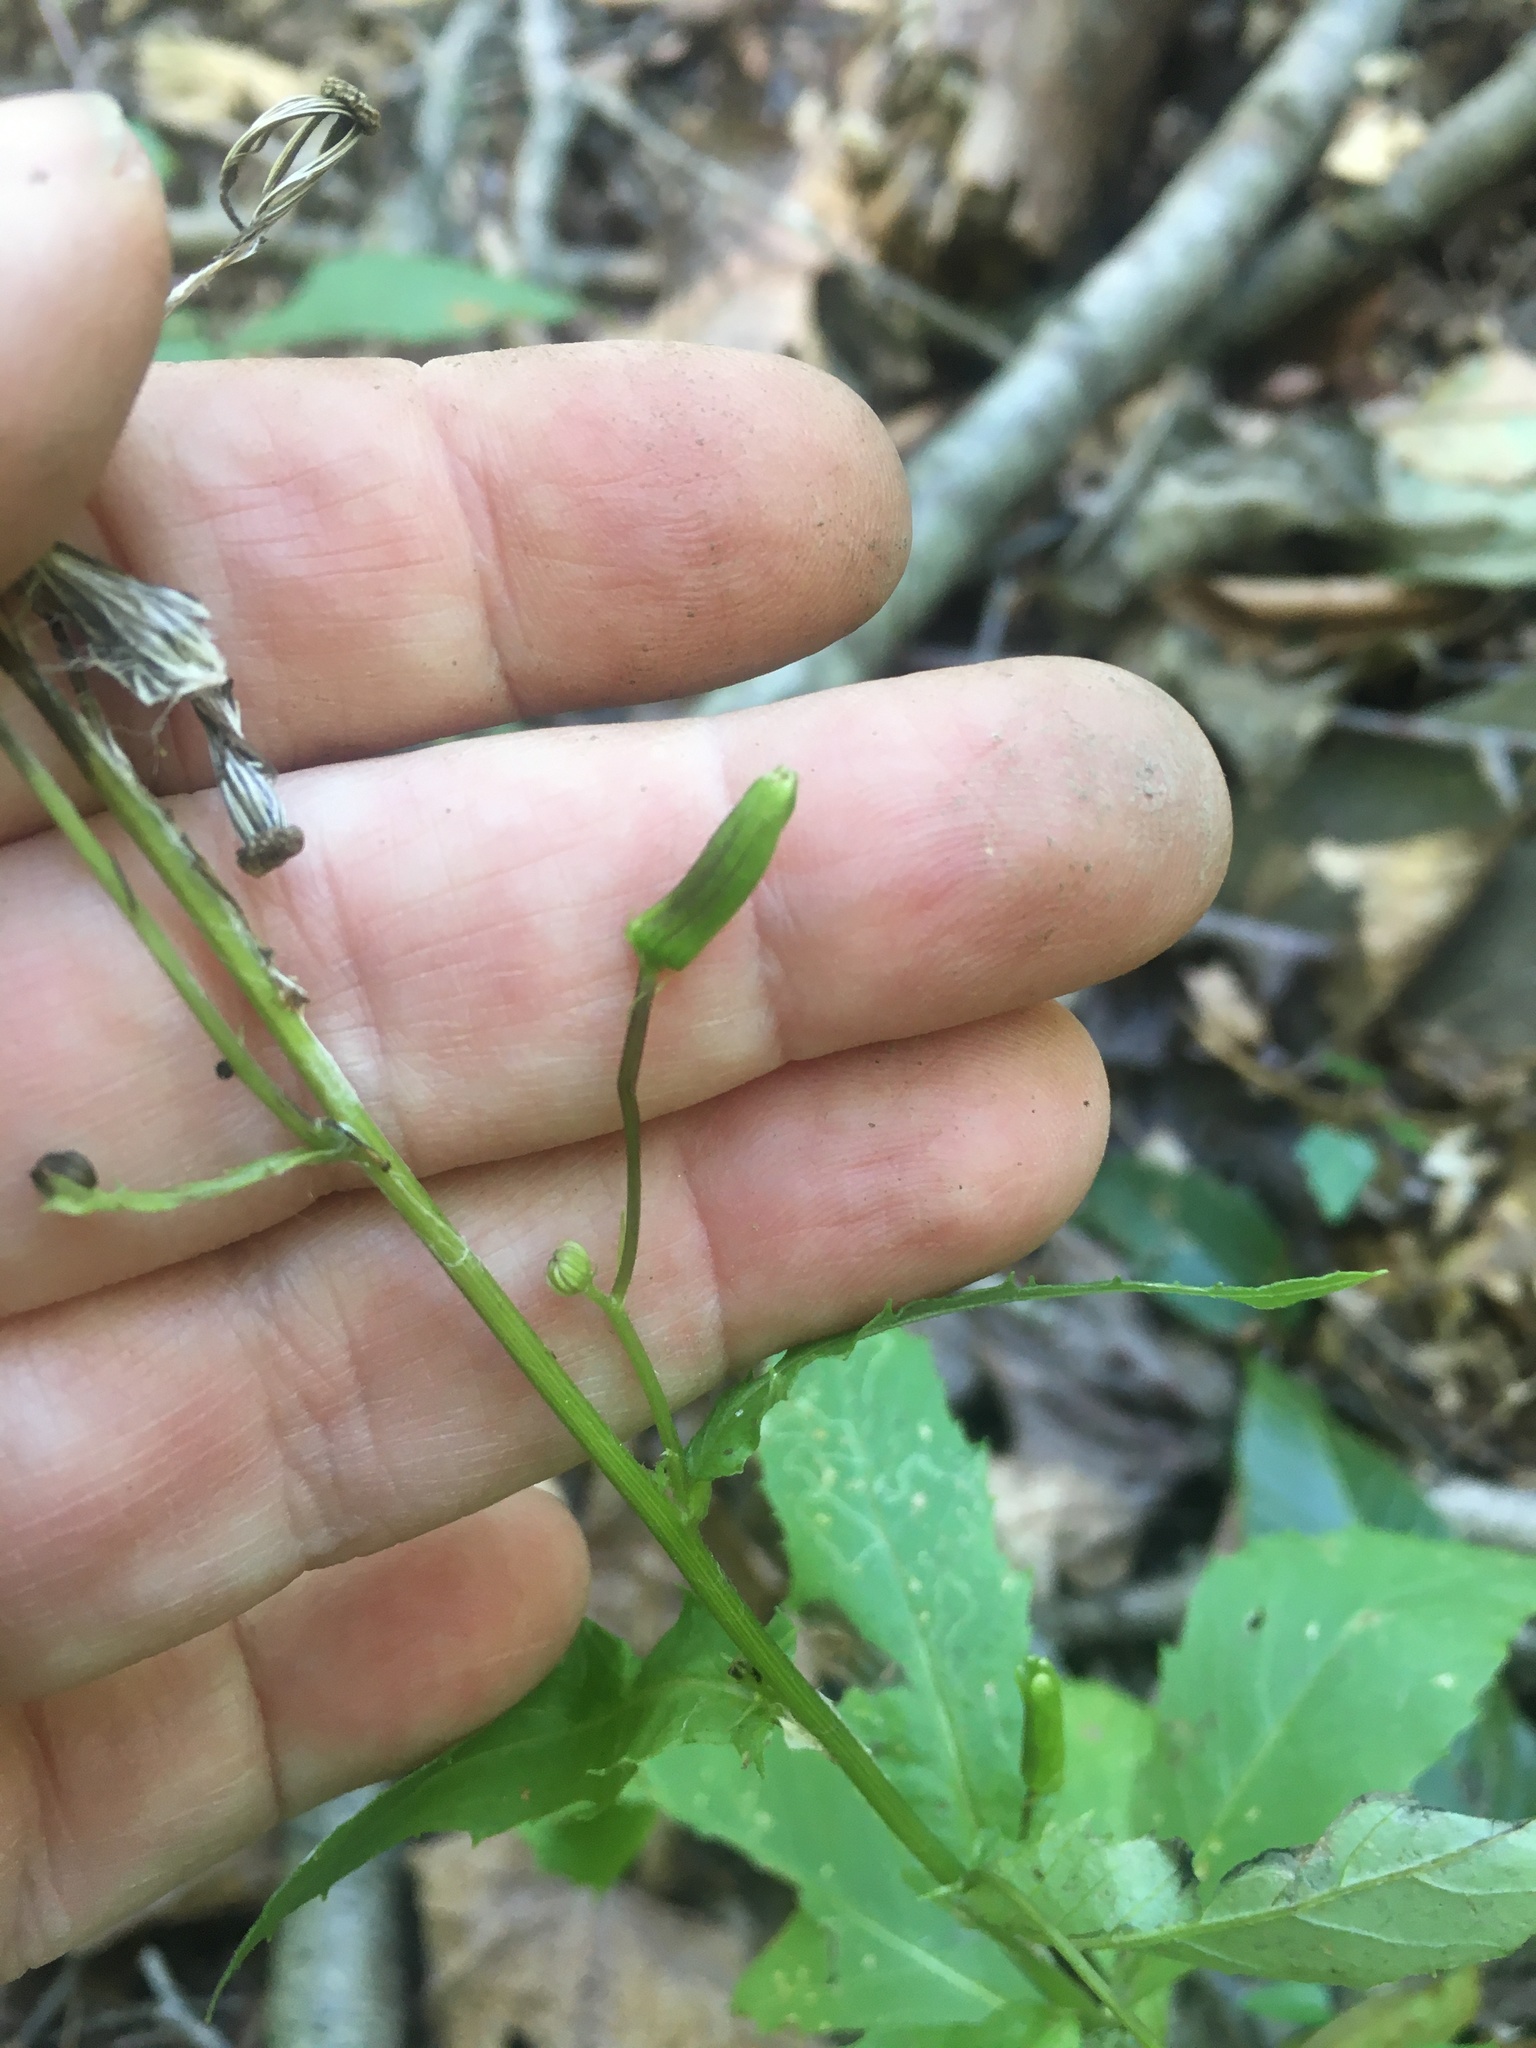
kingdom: Plantae
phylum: Tracheophyta
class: Magnoliopsida
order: Asterales
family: Asteraceae
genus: Erechtites
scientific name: Erechtites hieraciifolius
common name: American burnweed
